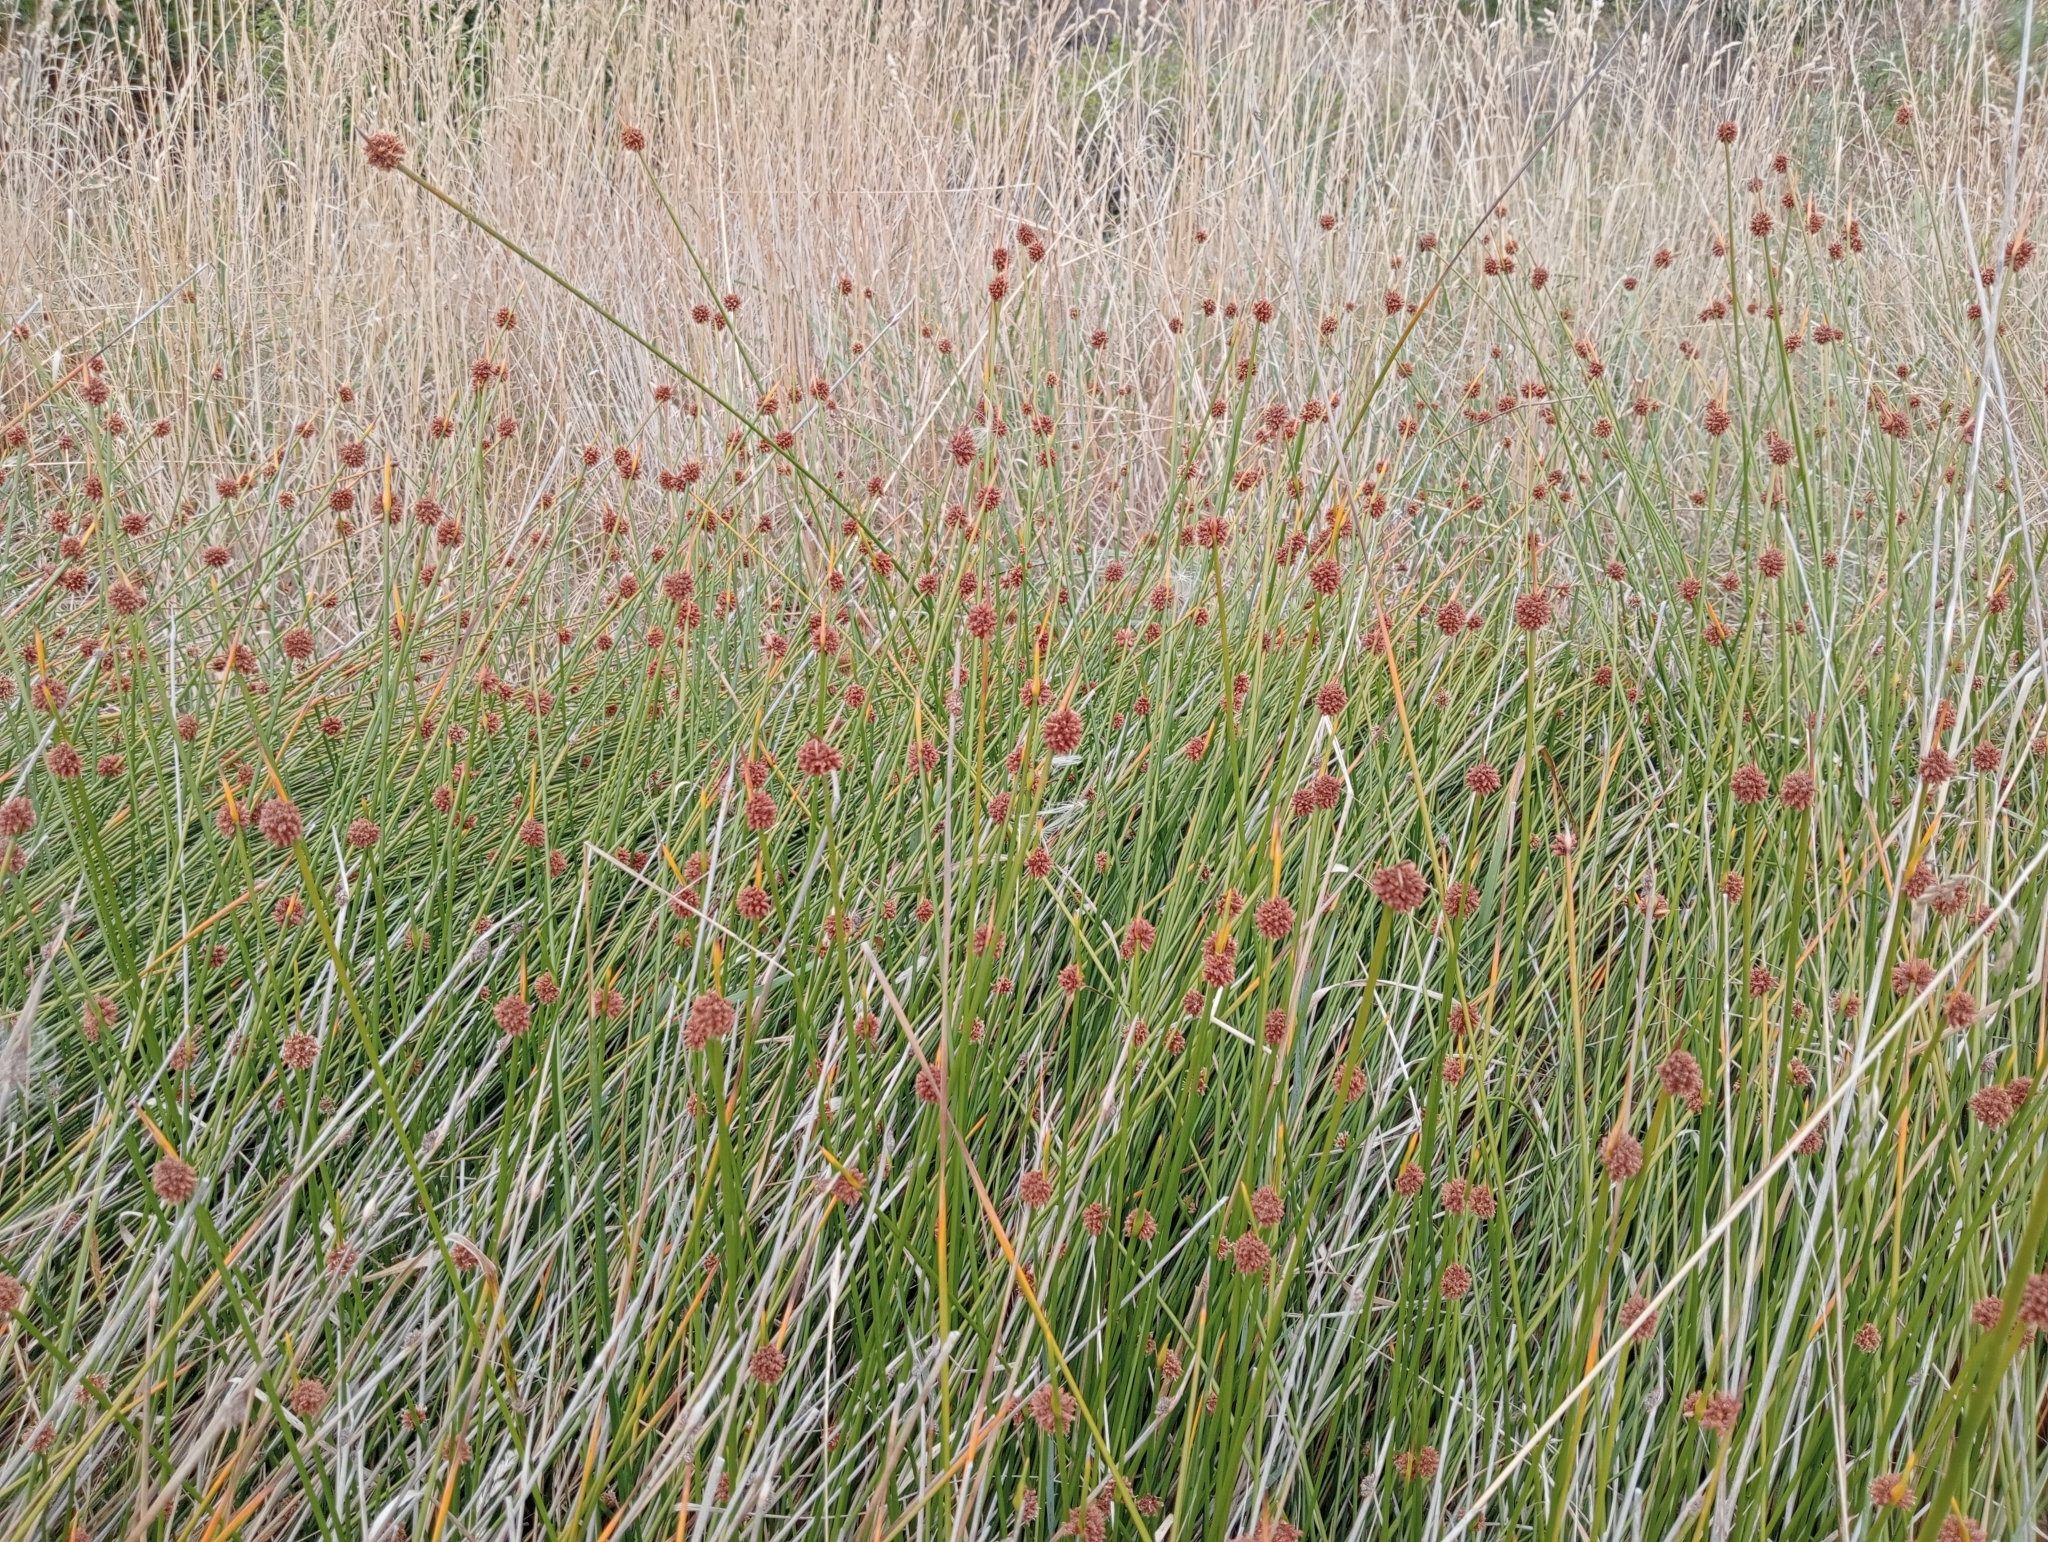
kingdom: Plantae
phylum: Tracheophyta
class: Liliopsida
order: Poales
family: Cyperaceae
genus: Ficinia
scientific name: Ficinia nodosa
